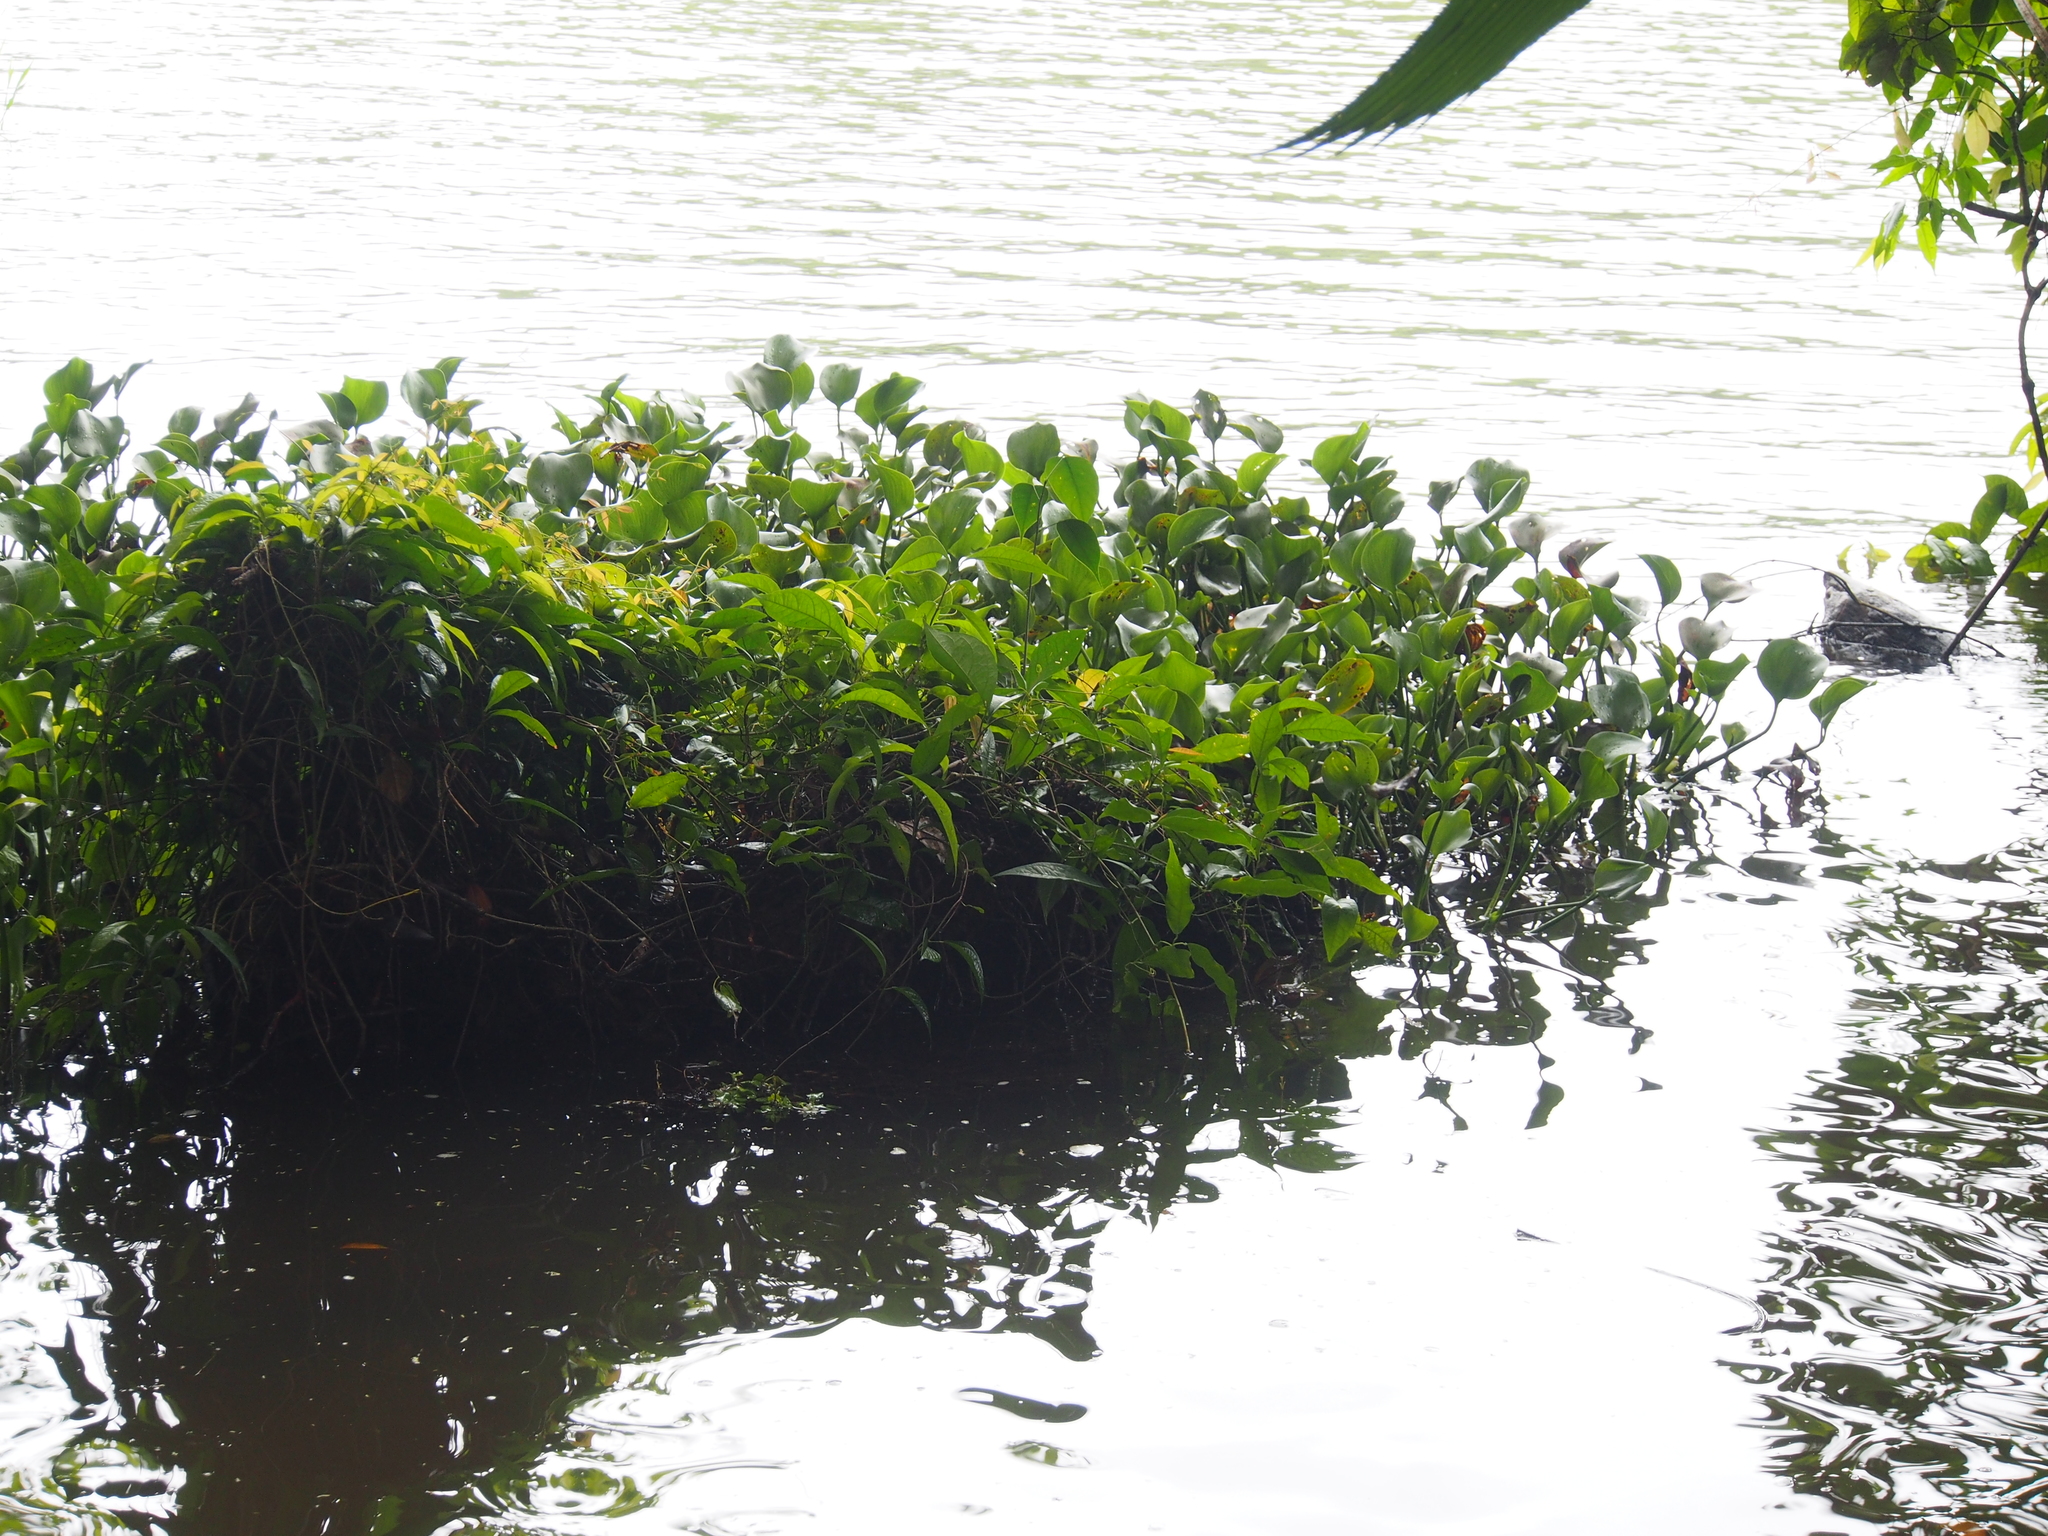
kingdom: Plantae
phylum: Tracheophyta
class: Liliopsida
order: Commelinales
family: Pontederiaceae
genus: Pontederia
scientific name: Pontederia crassipes
